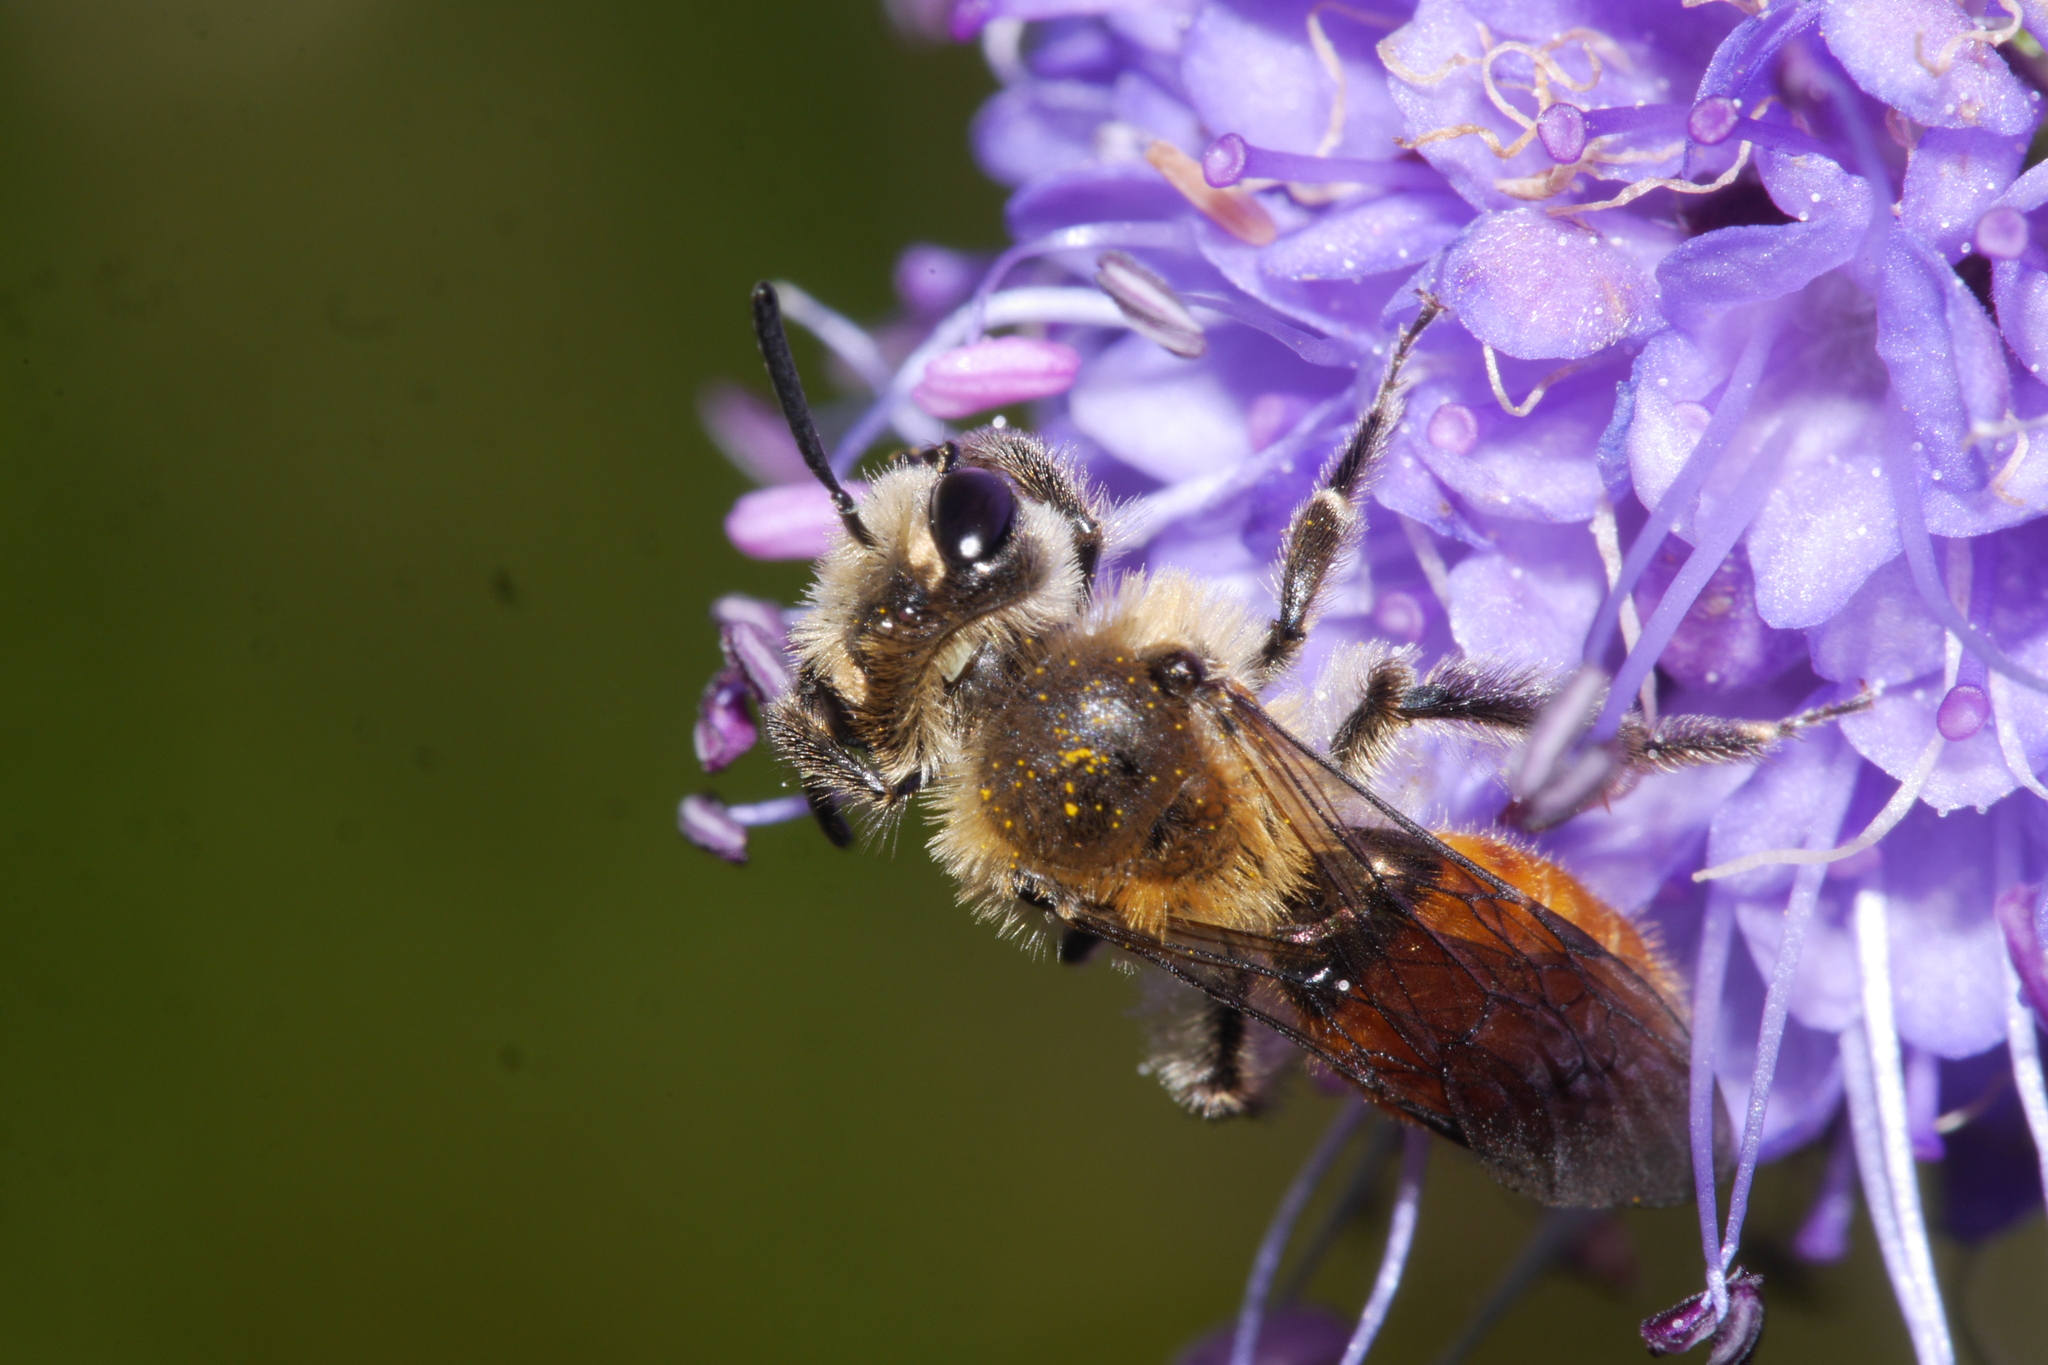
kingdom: Animalia
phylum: Arthropoda
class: Insecta
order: Hymenoptera
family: Andrenidae
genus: Andrena
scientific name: Andrena marginata
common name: Small scabious mining bee
